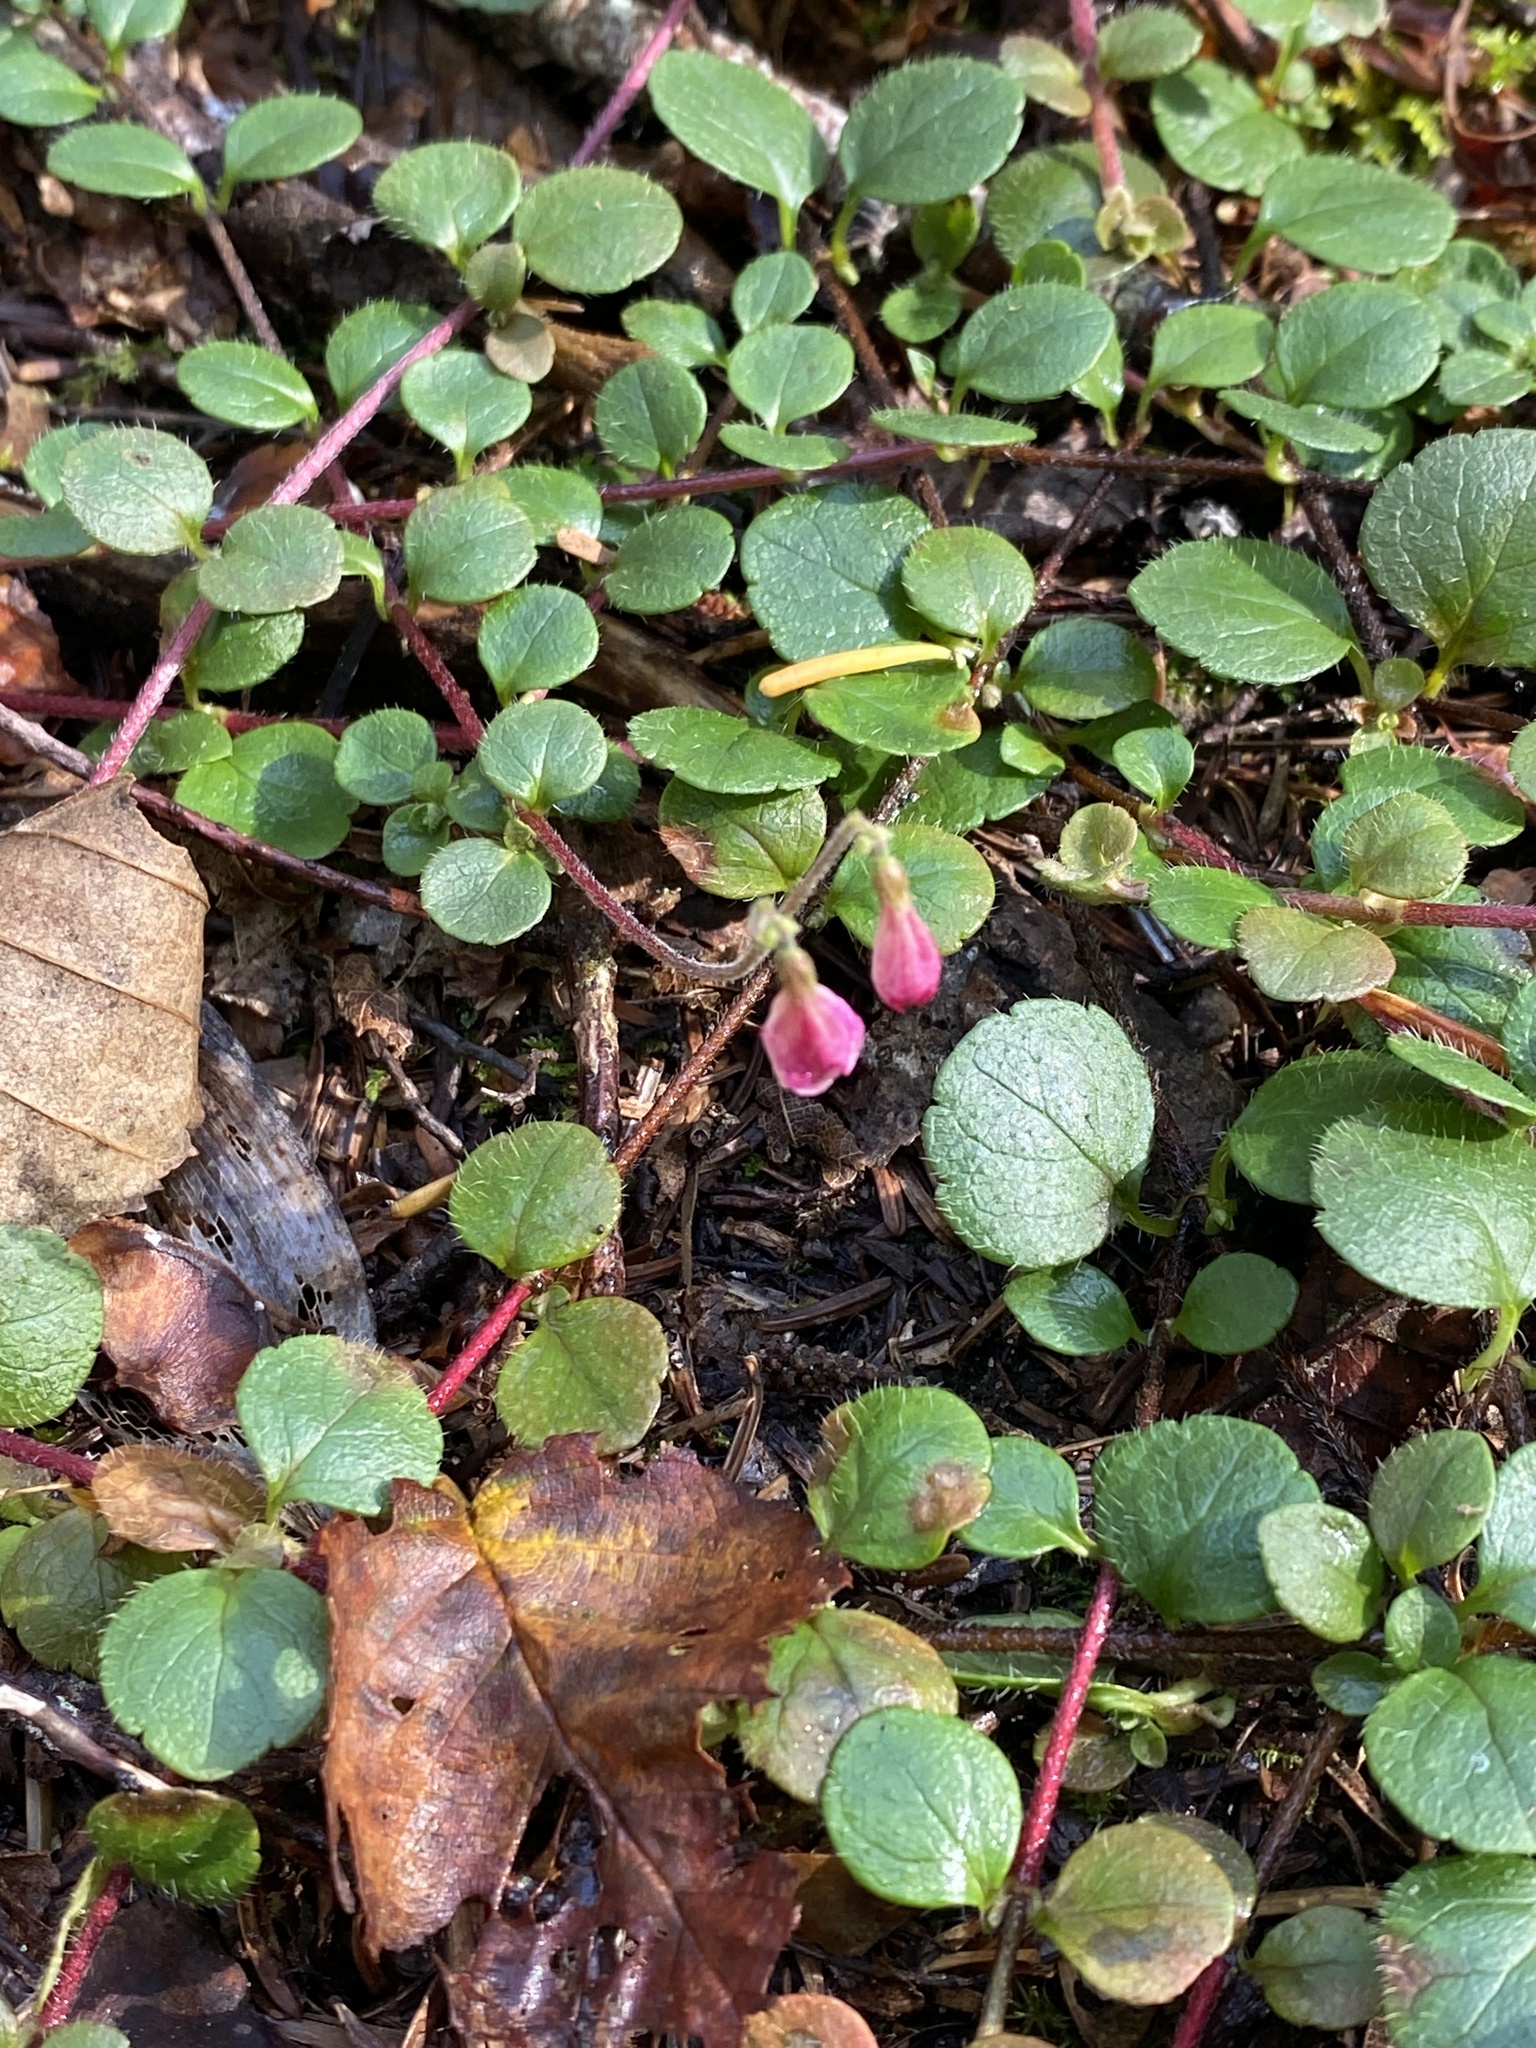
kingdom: Plantae
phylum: Tracheophyta
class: Magnoliopsida
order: Dipsacales
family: Caprifoliaceae
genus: Linnaea
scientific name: Linnaea borealis
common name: Twinflower
